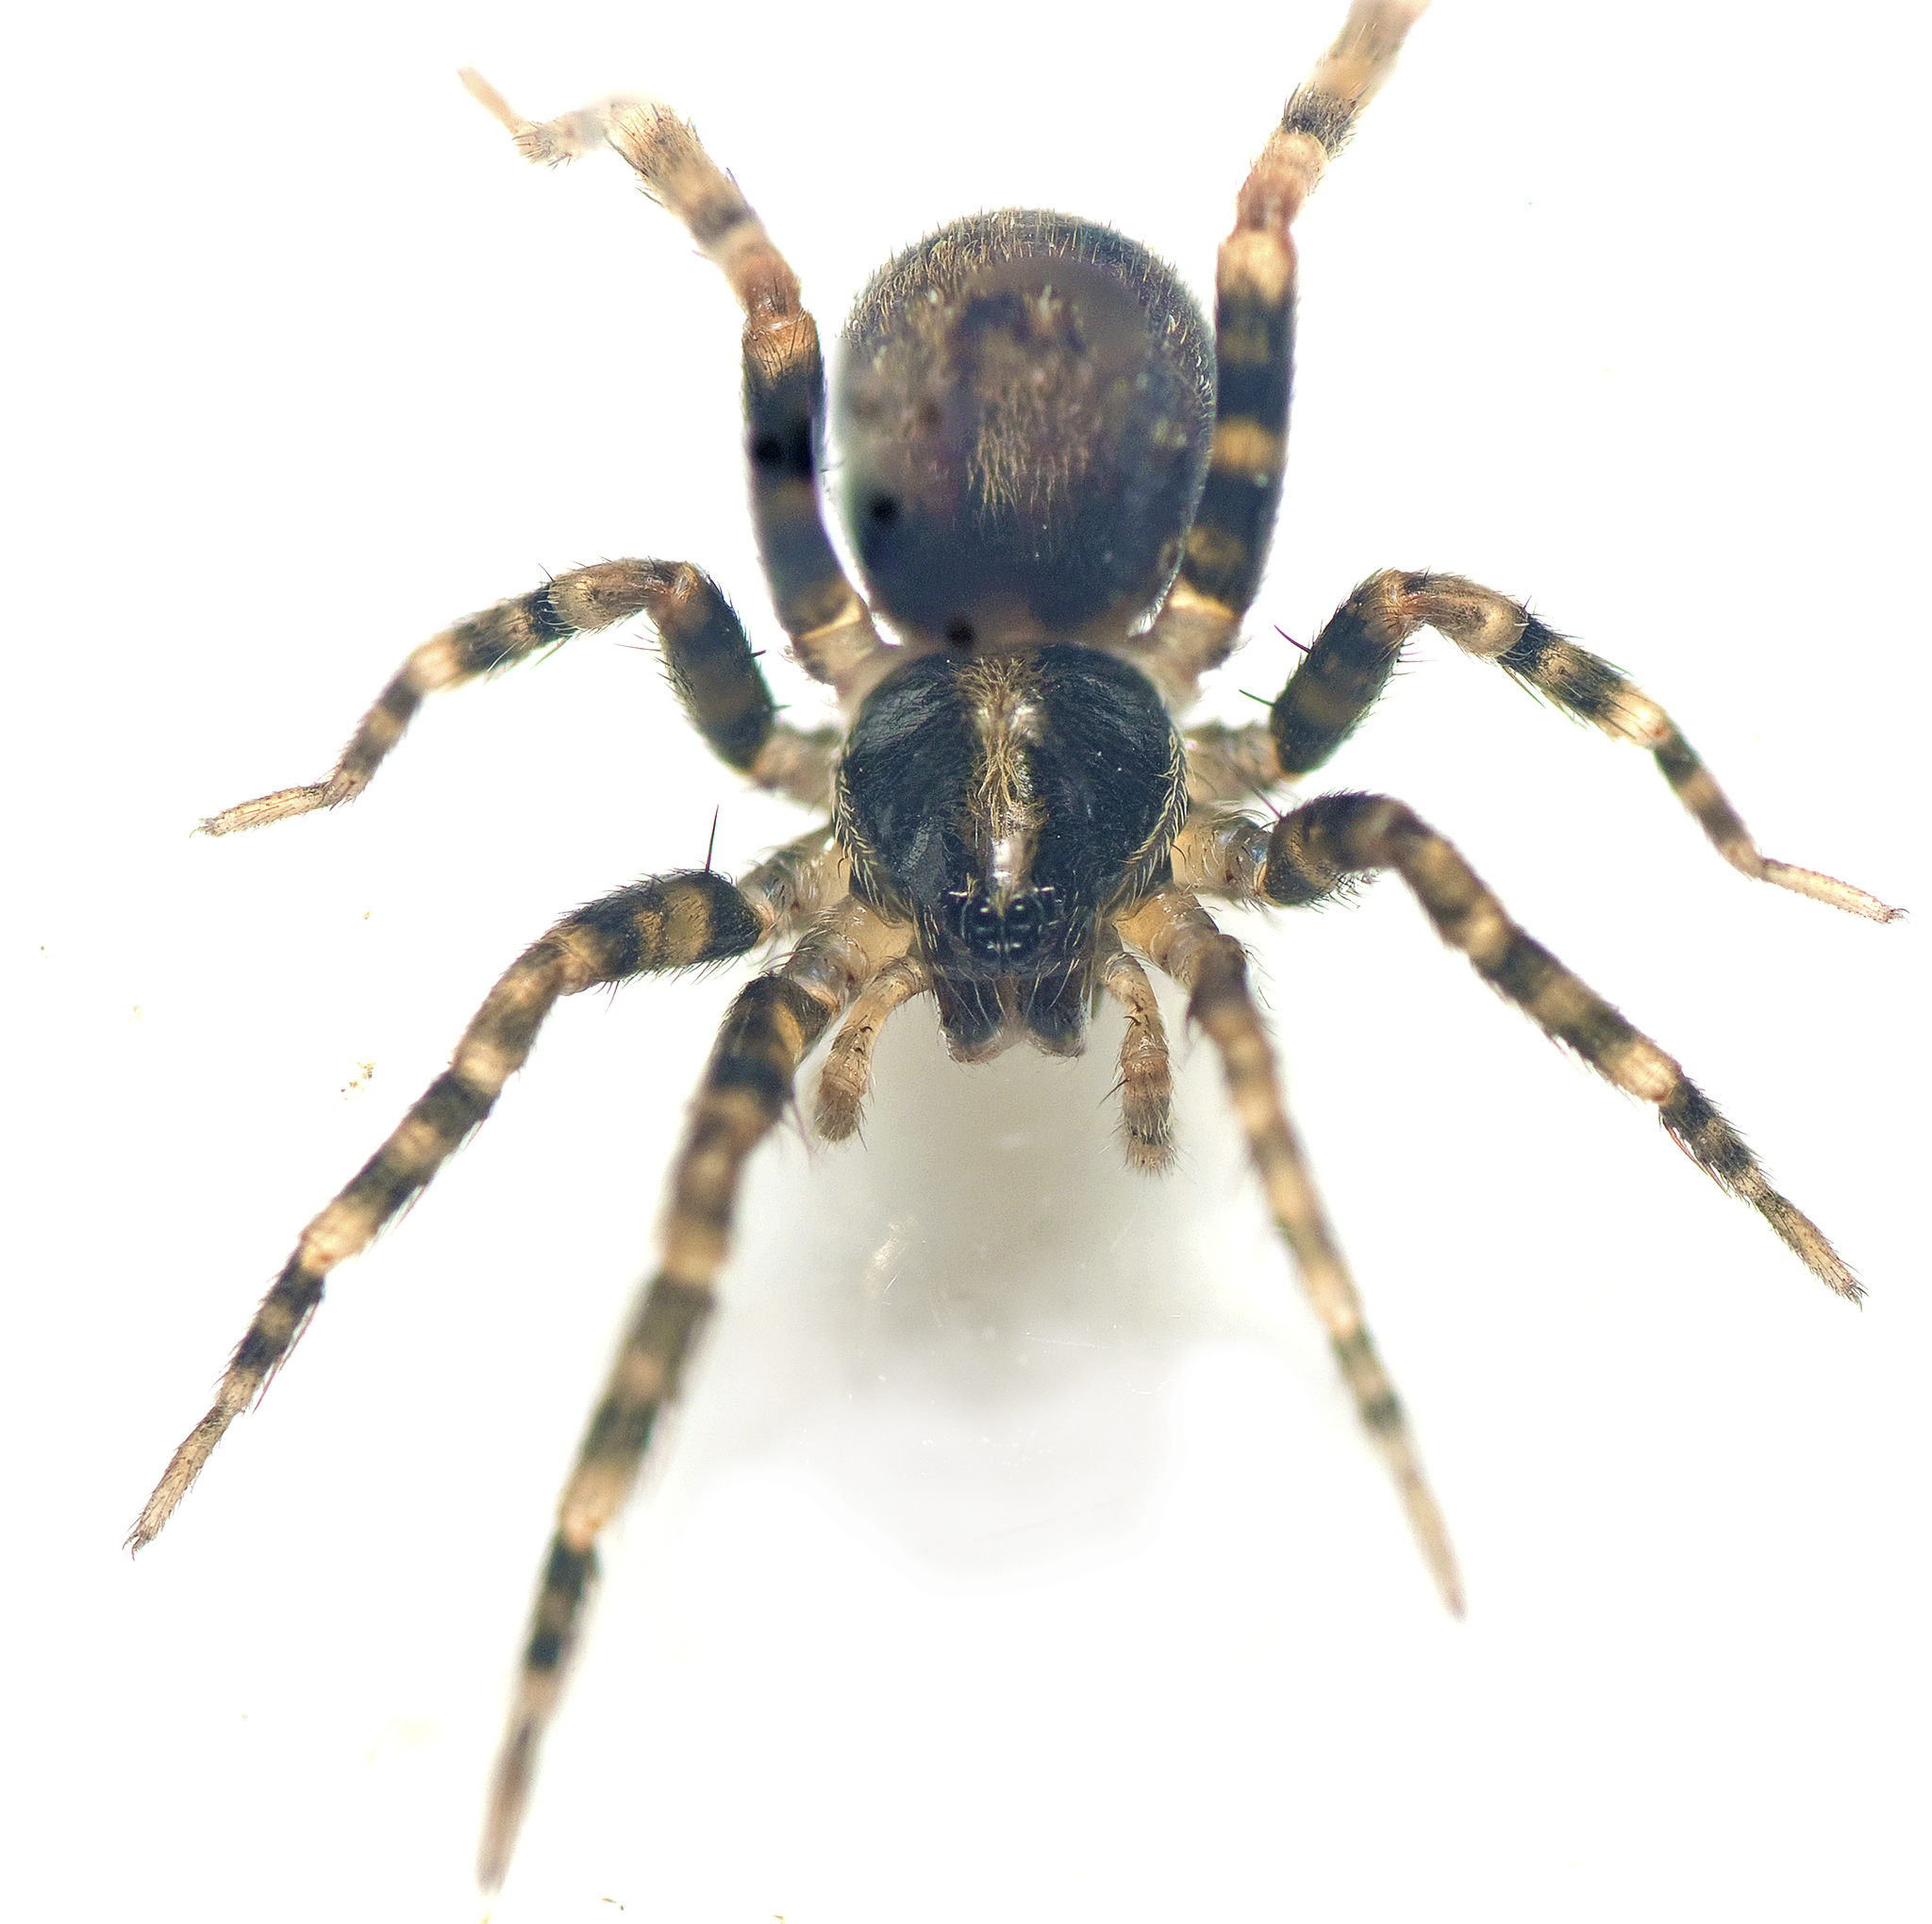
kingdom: Animalia
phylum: Arthropoda
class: Arachnida
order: Araneae
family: Miturgidae
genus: Hestimodema
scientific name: Hestimodema ambigua
